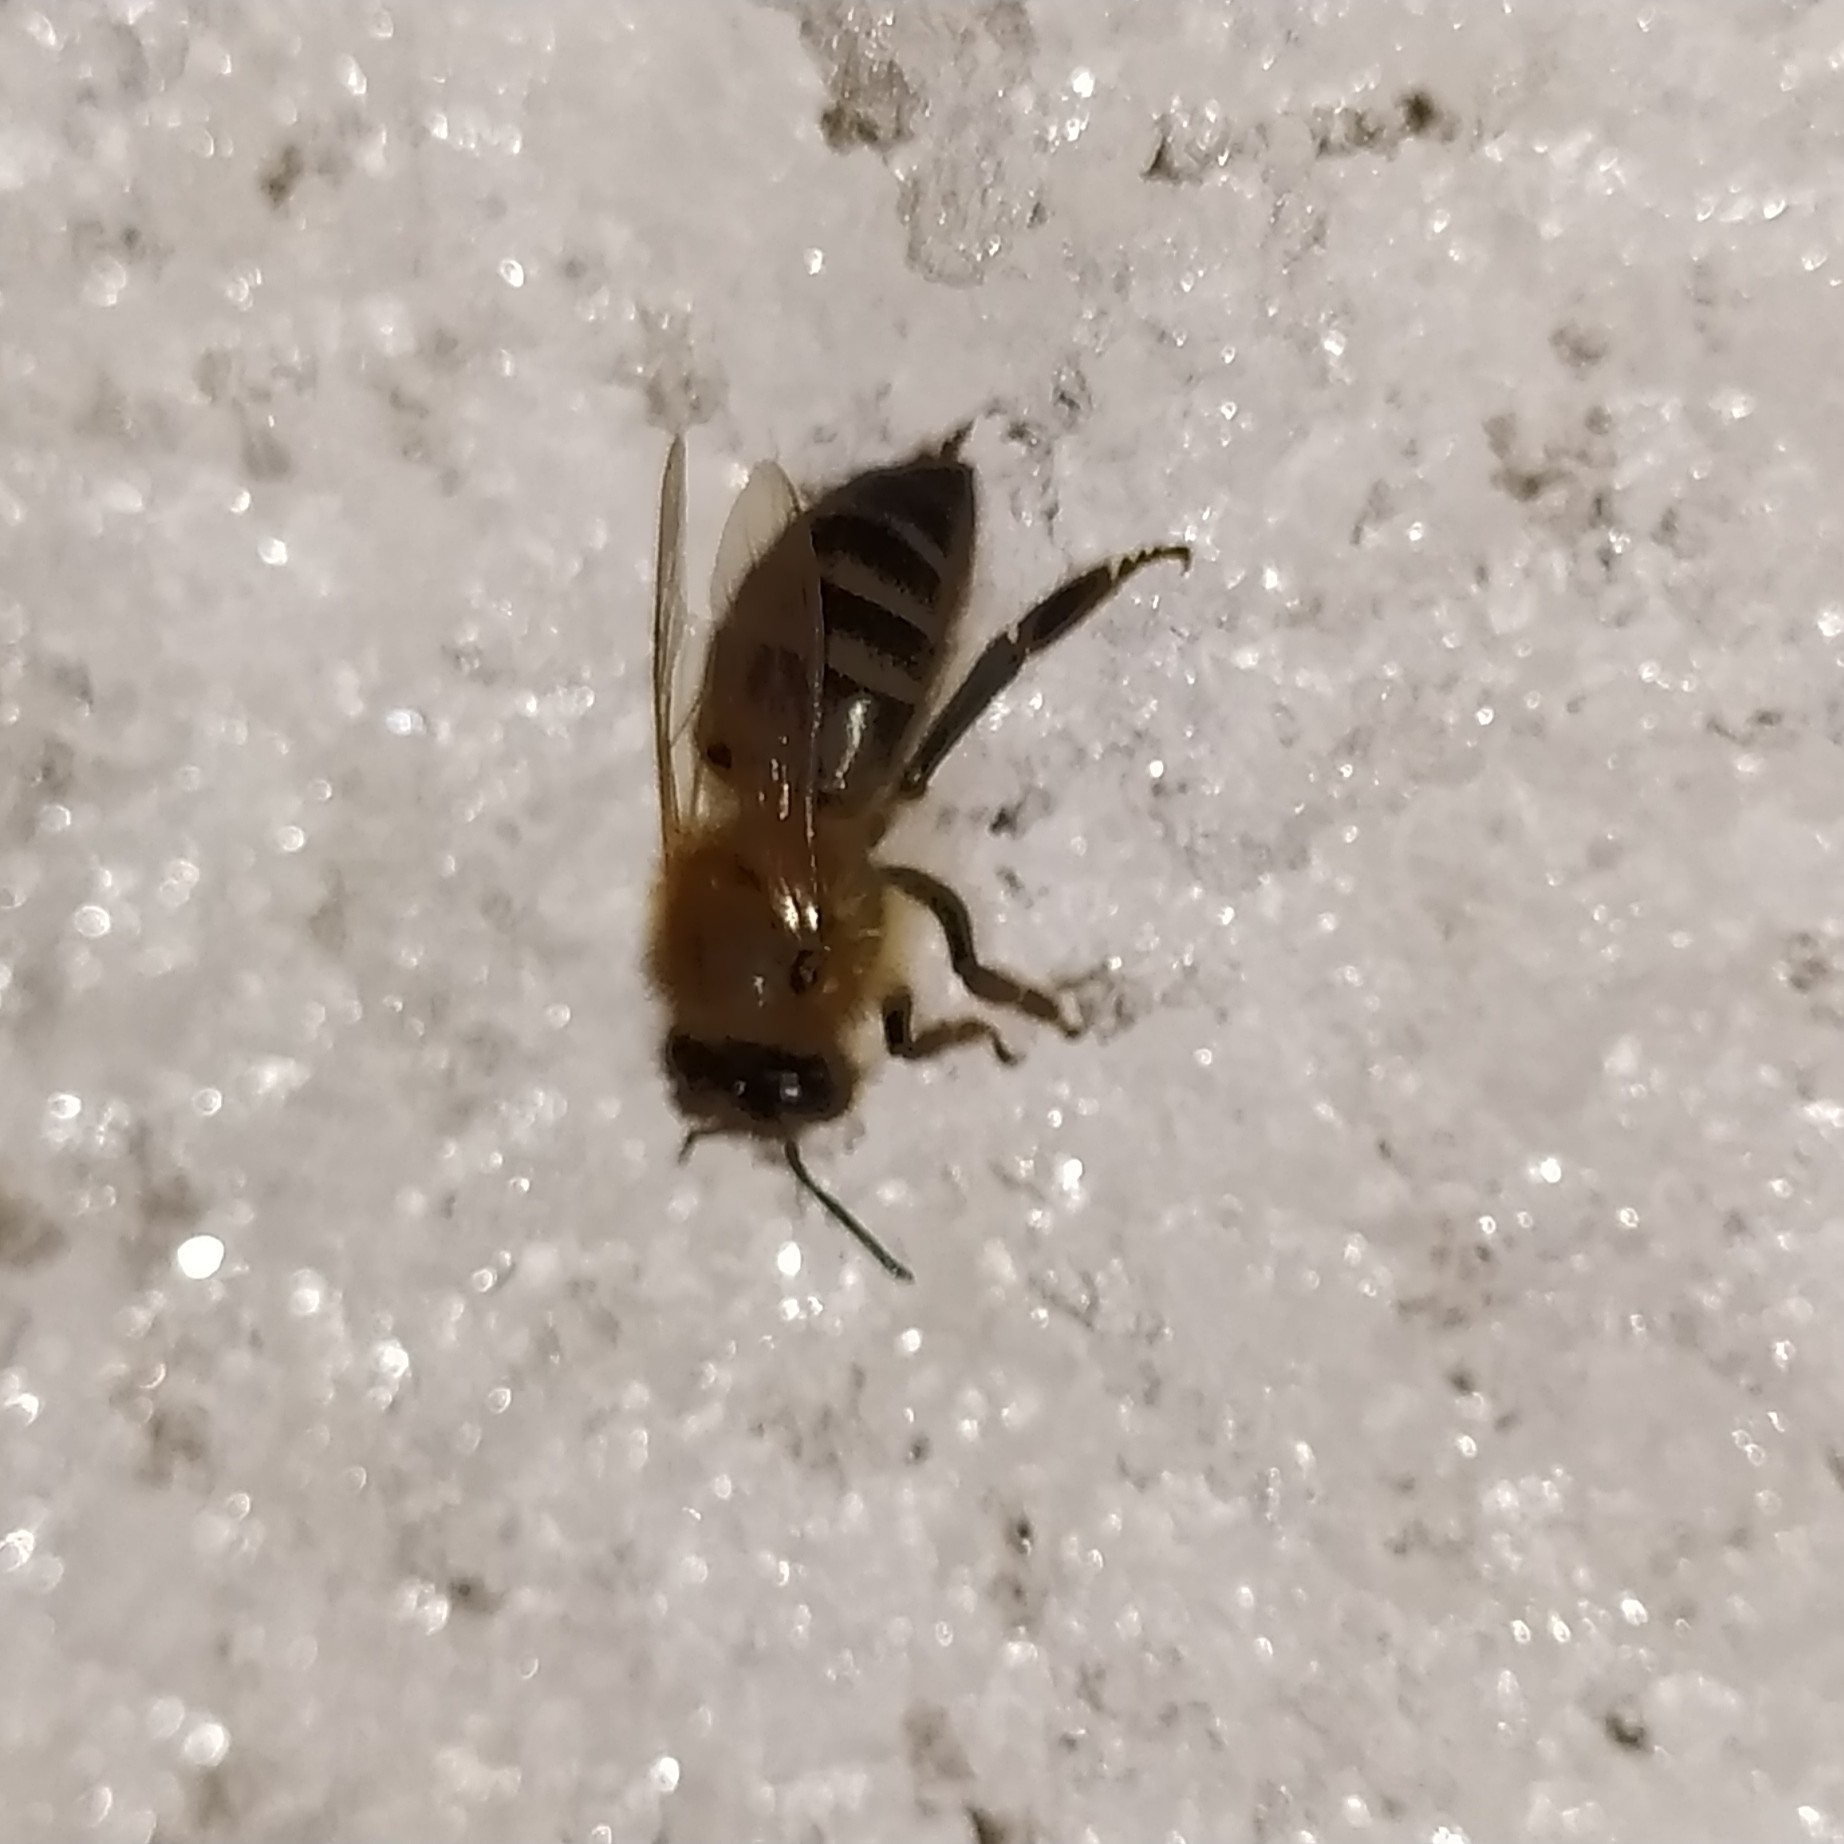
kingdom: Animalia
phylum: Arthropoda
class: Insecta
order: Hymenoptera
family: Apidae
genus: Apis
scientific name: Apis mellifera
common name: Honey bee
